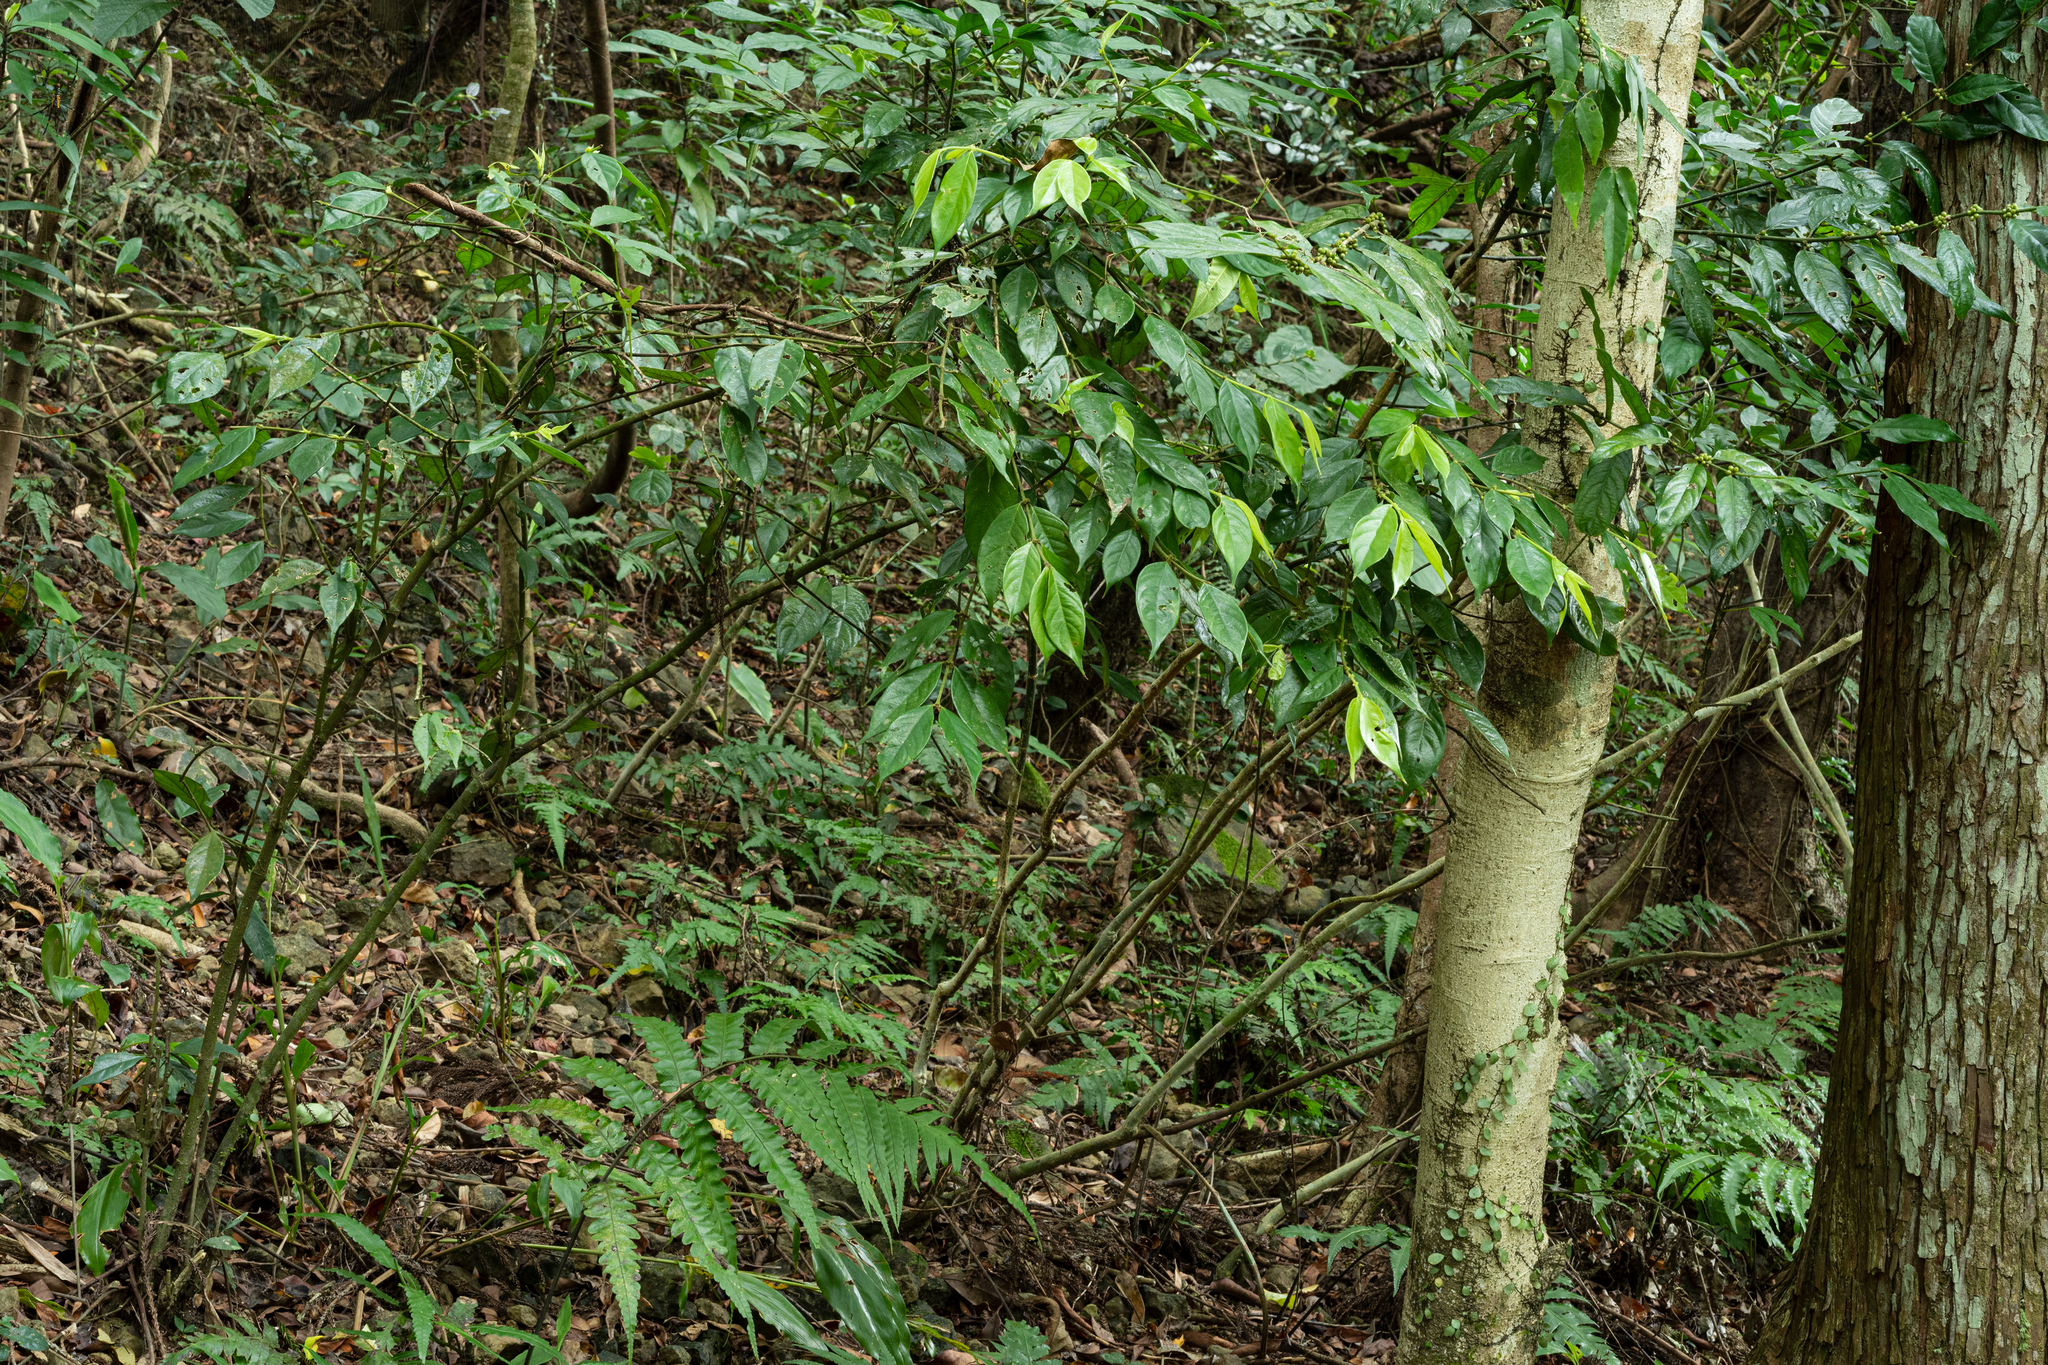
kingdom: Plantae
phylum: Tracheophyta
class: Magnoliopsida
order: Gentianales
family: Rubiaceae
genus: Lasianthus
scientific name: Lasianthus hispidulus
